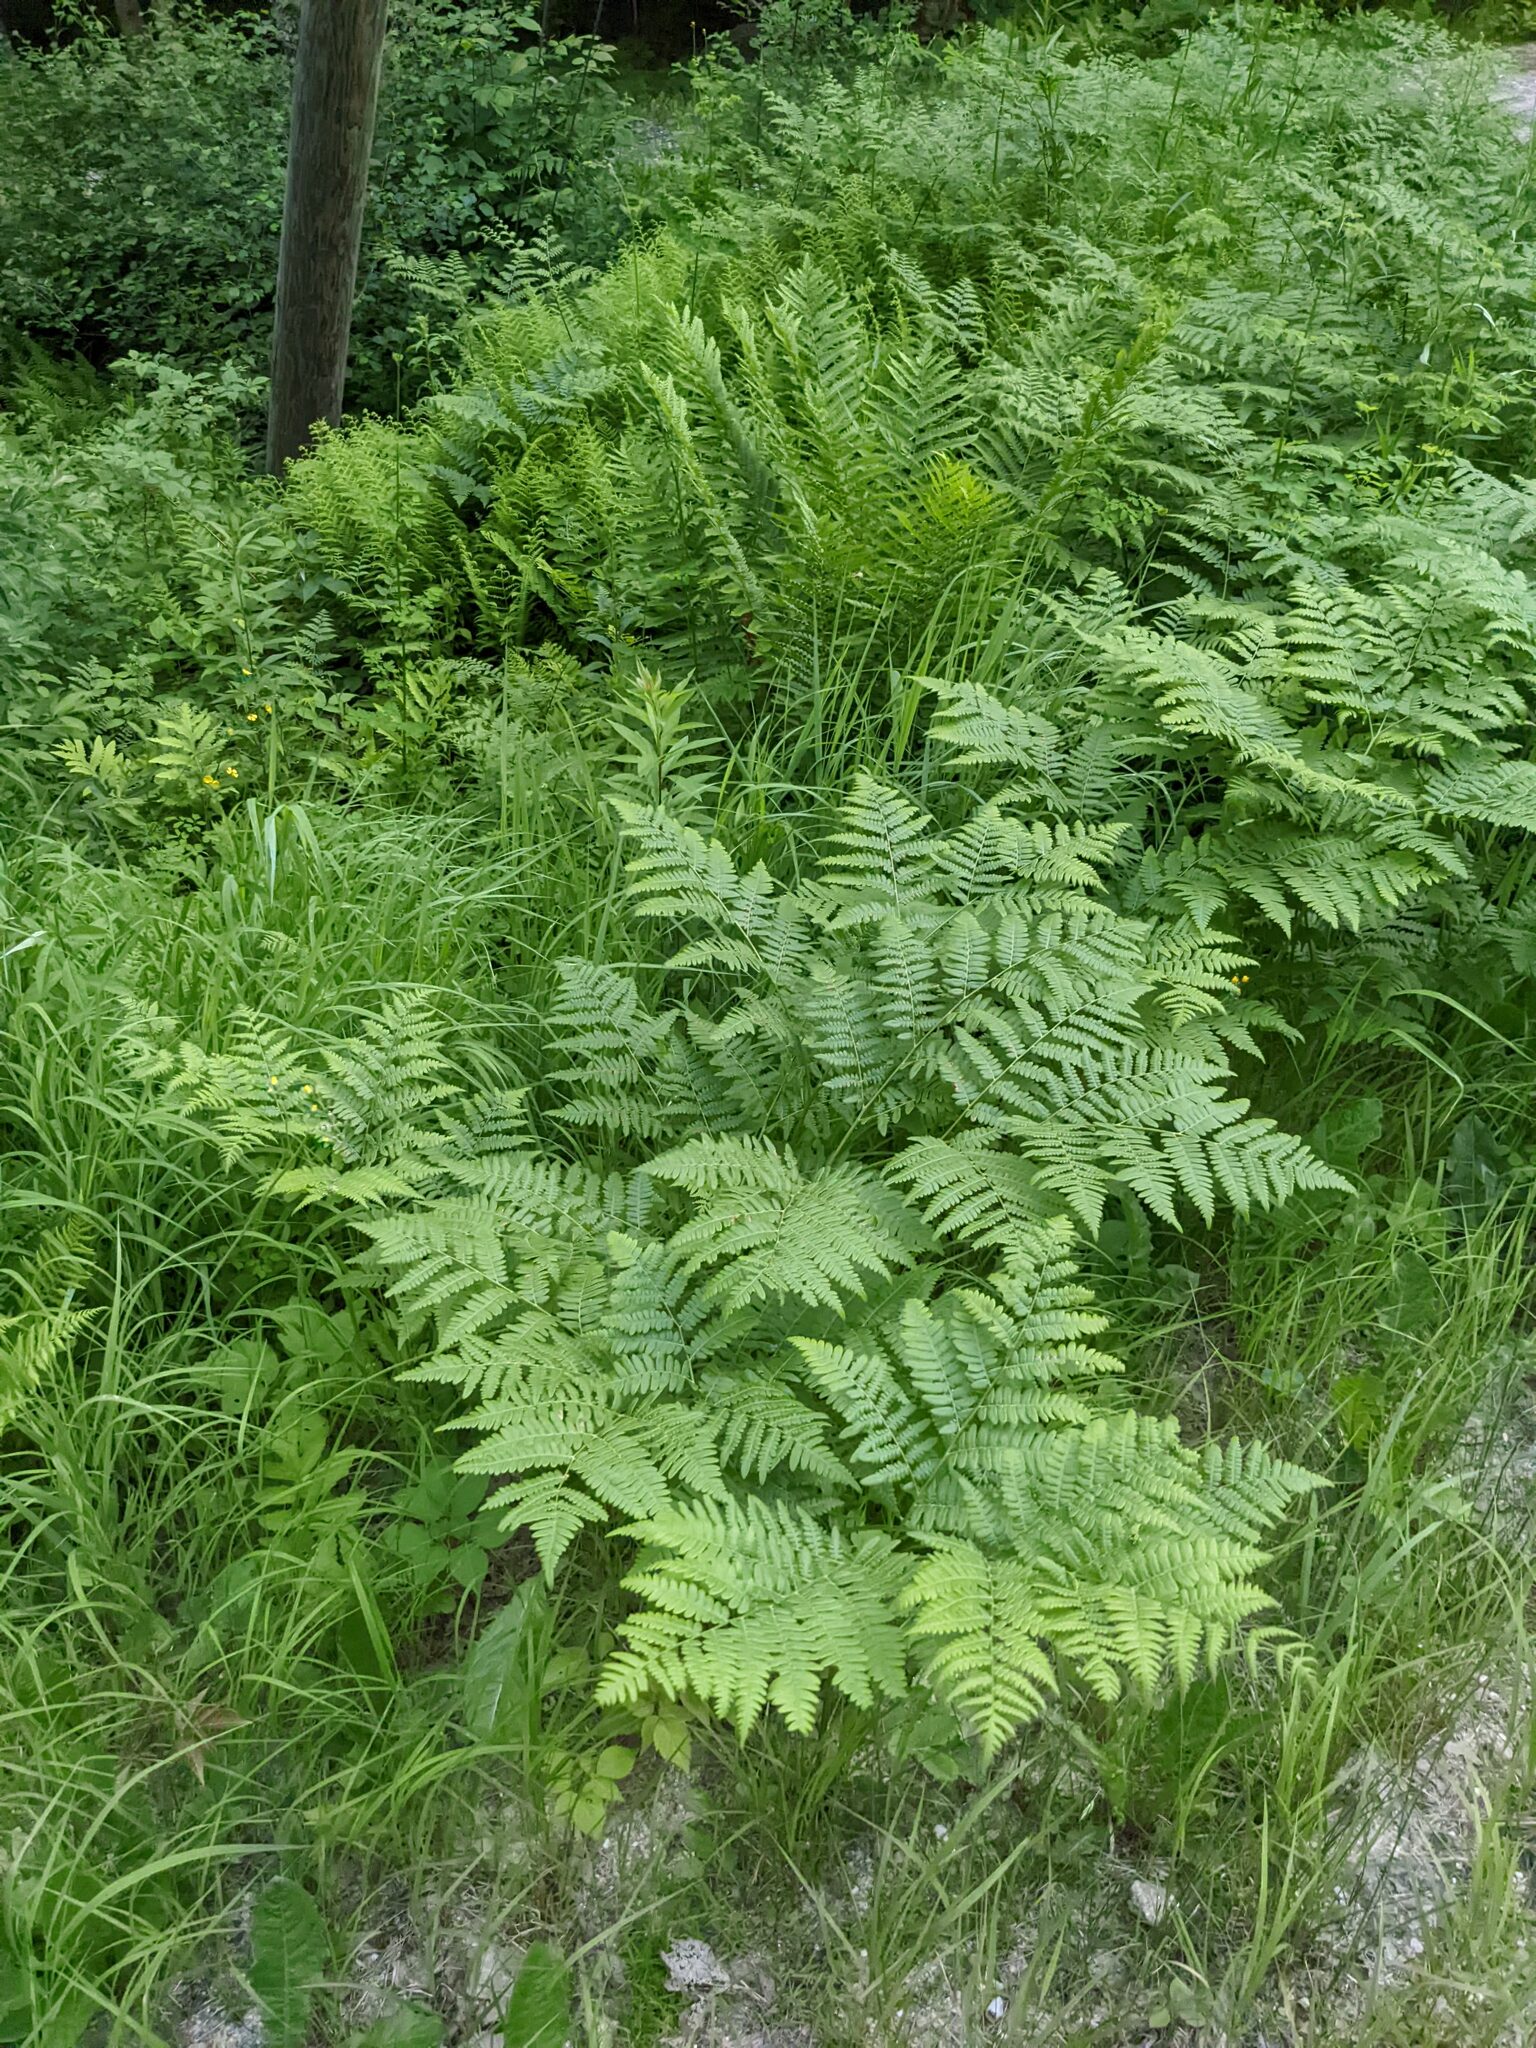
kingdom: Plantae
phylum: Tracheophyta
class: Polypodiopsida
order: Polypodiales
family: Dennstaedtiaceae
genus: Pteridium
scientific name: Pteridium aquilinum
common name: Bracken
